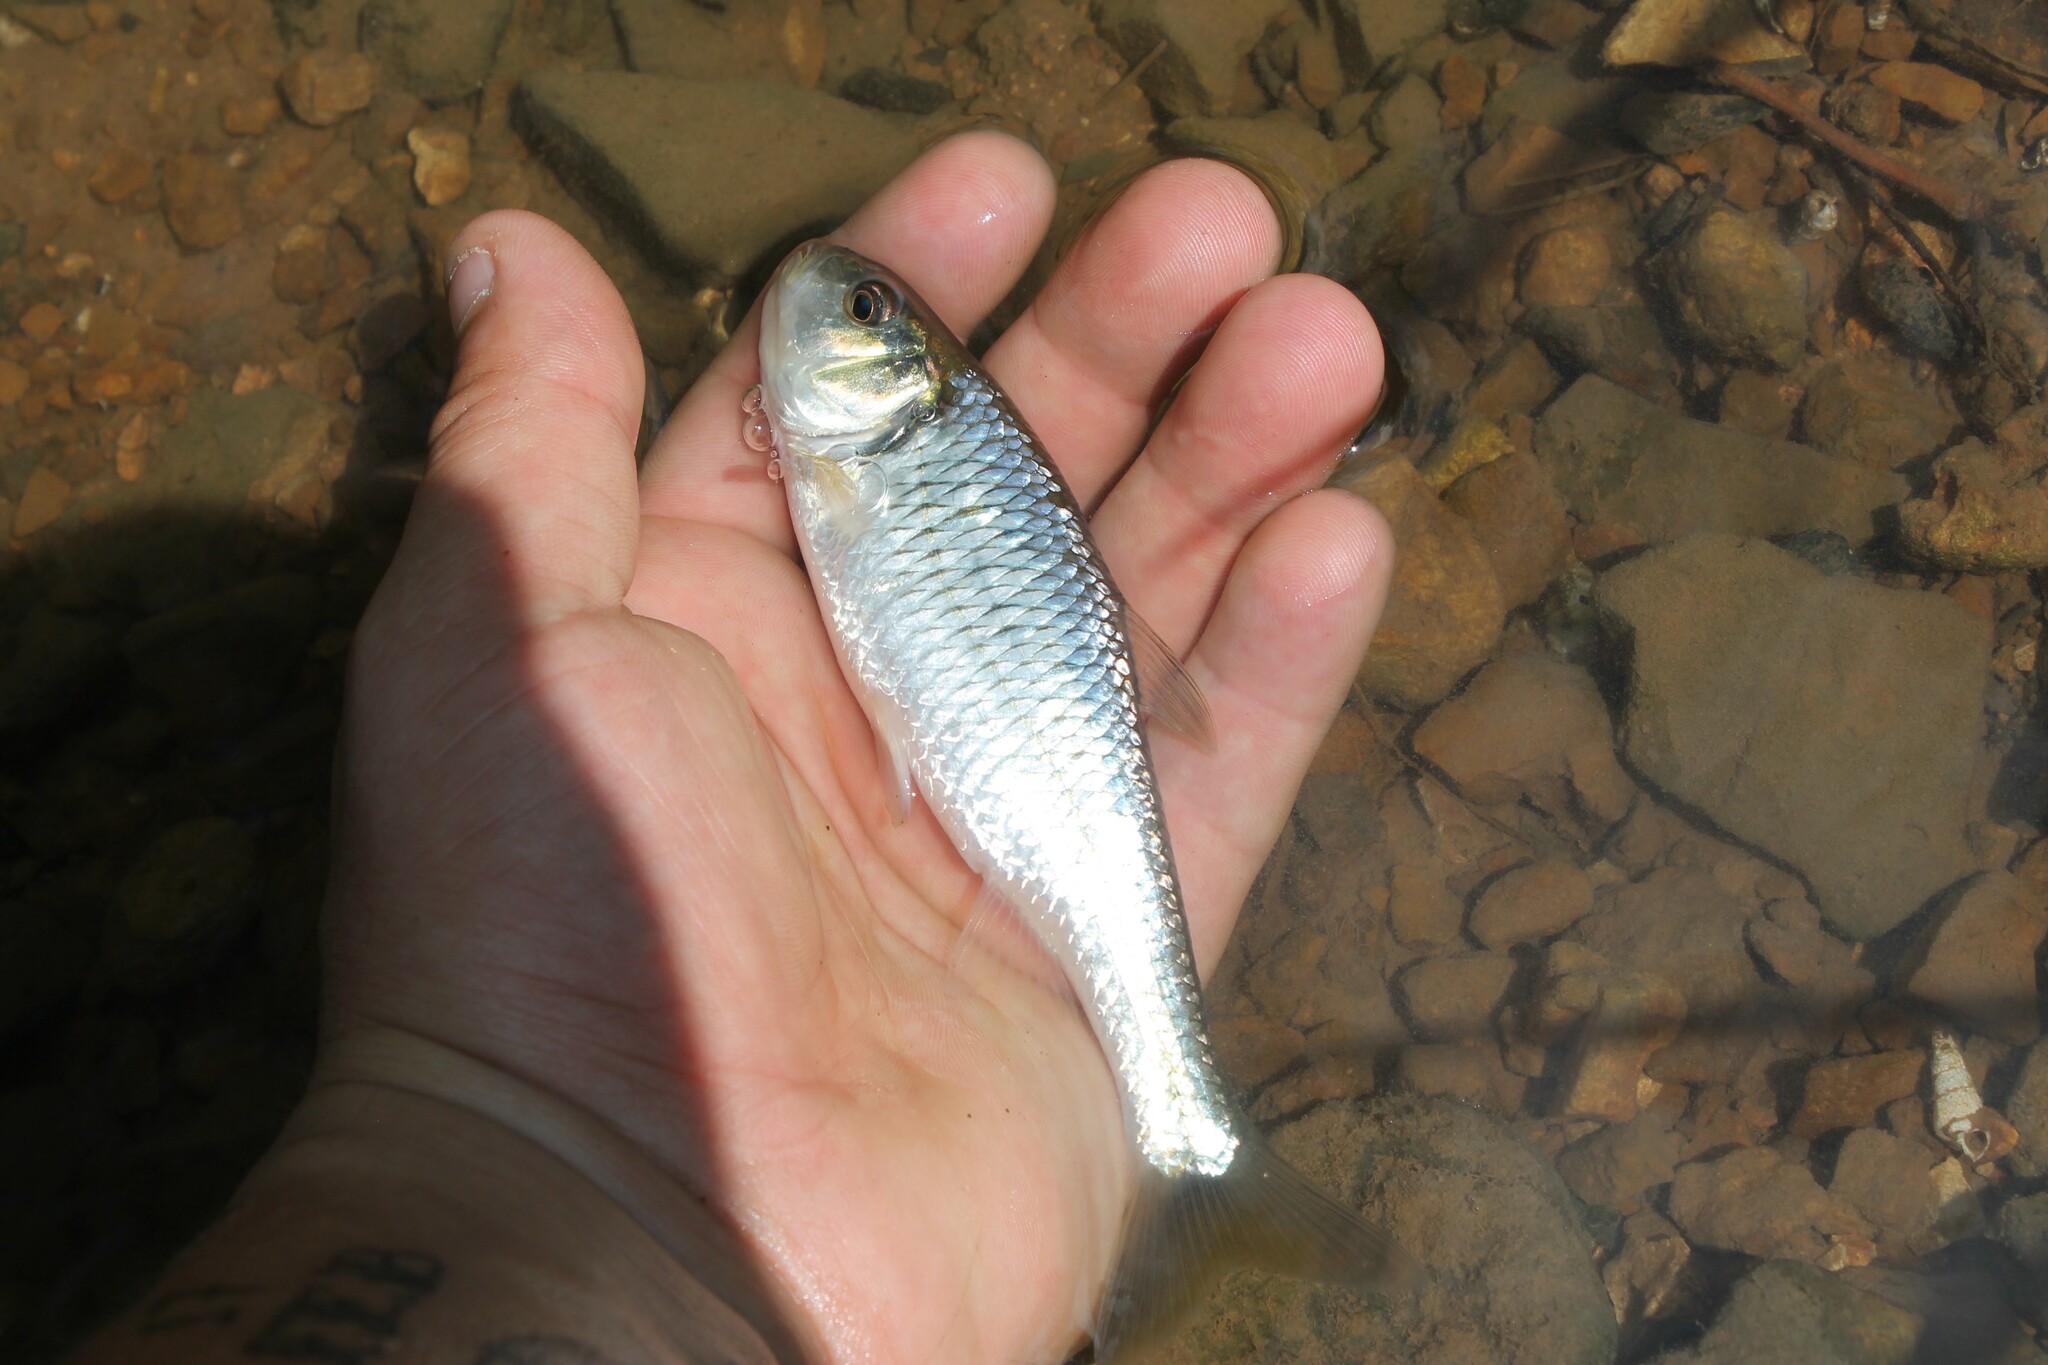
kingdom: Animalia
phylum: Chordata
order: Cypriniformes
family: Cyprinidae
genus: Luxilus
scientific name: Luxilus chrysocephalus
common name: Striped shiner
